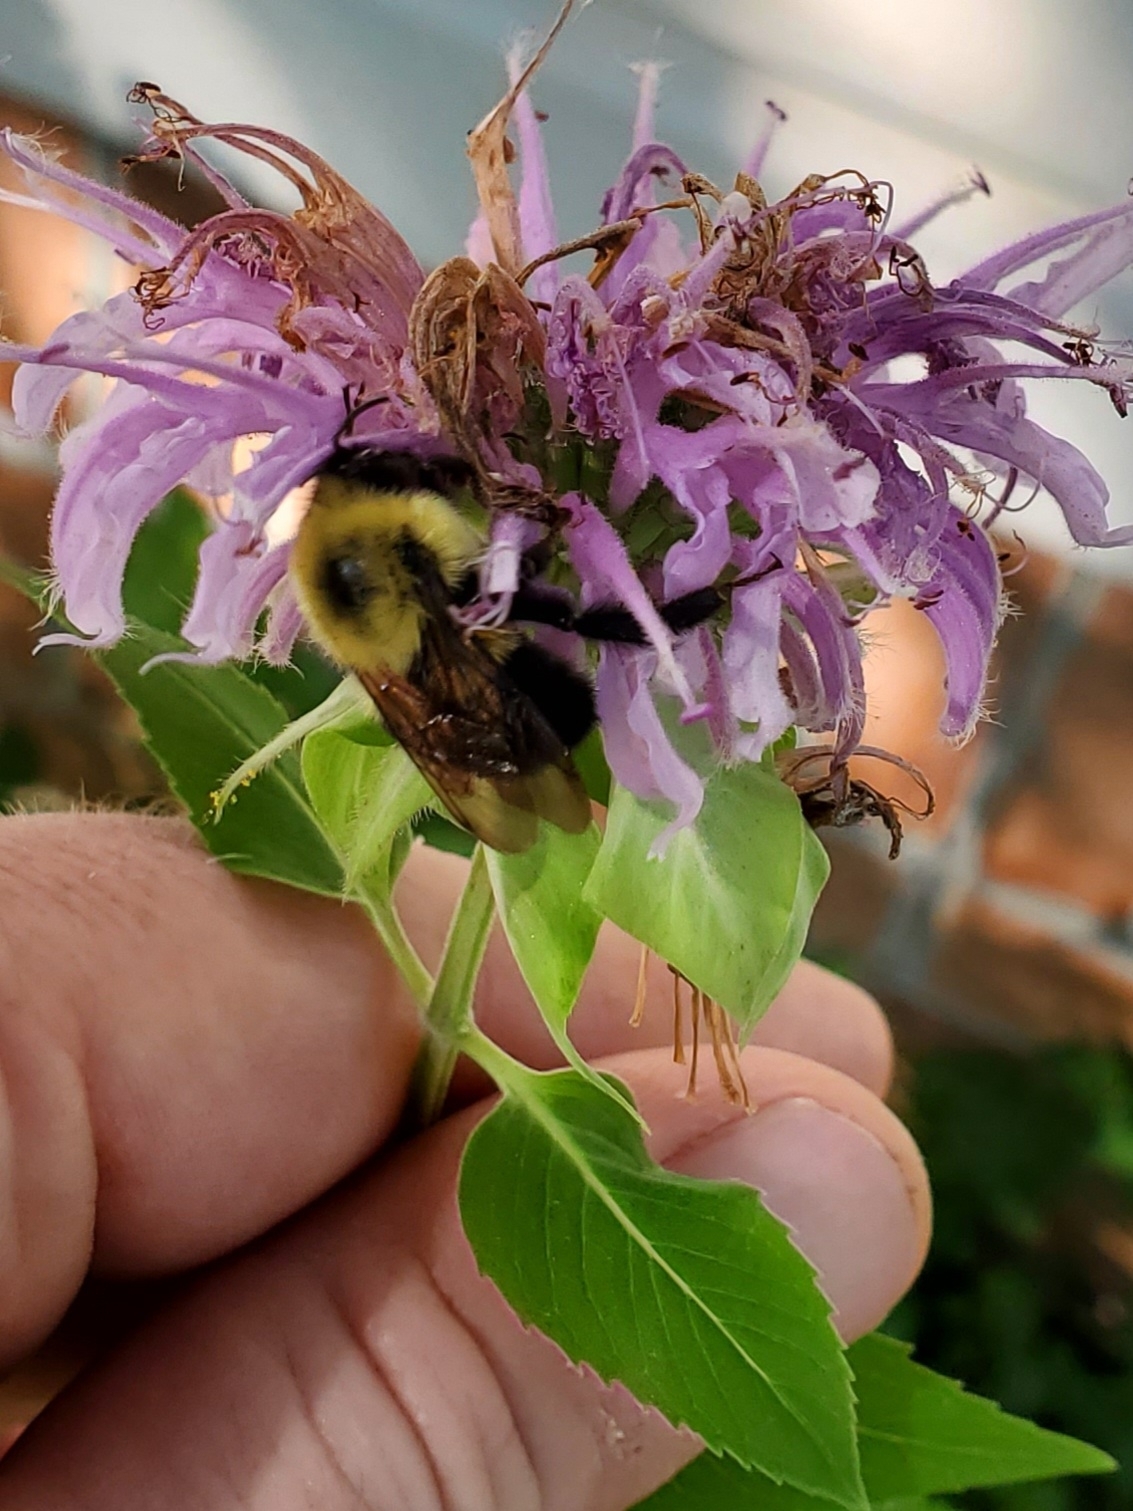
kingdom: Animalia
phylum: Arthropoda
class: Insecta
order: Hymenoptera
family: Apidae
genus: Bombus
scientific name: Bombus bimaculatus
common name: Two-spotted bumble bee
